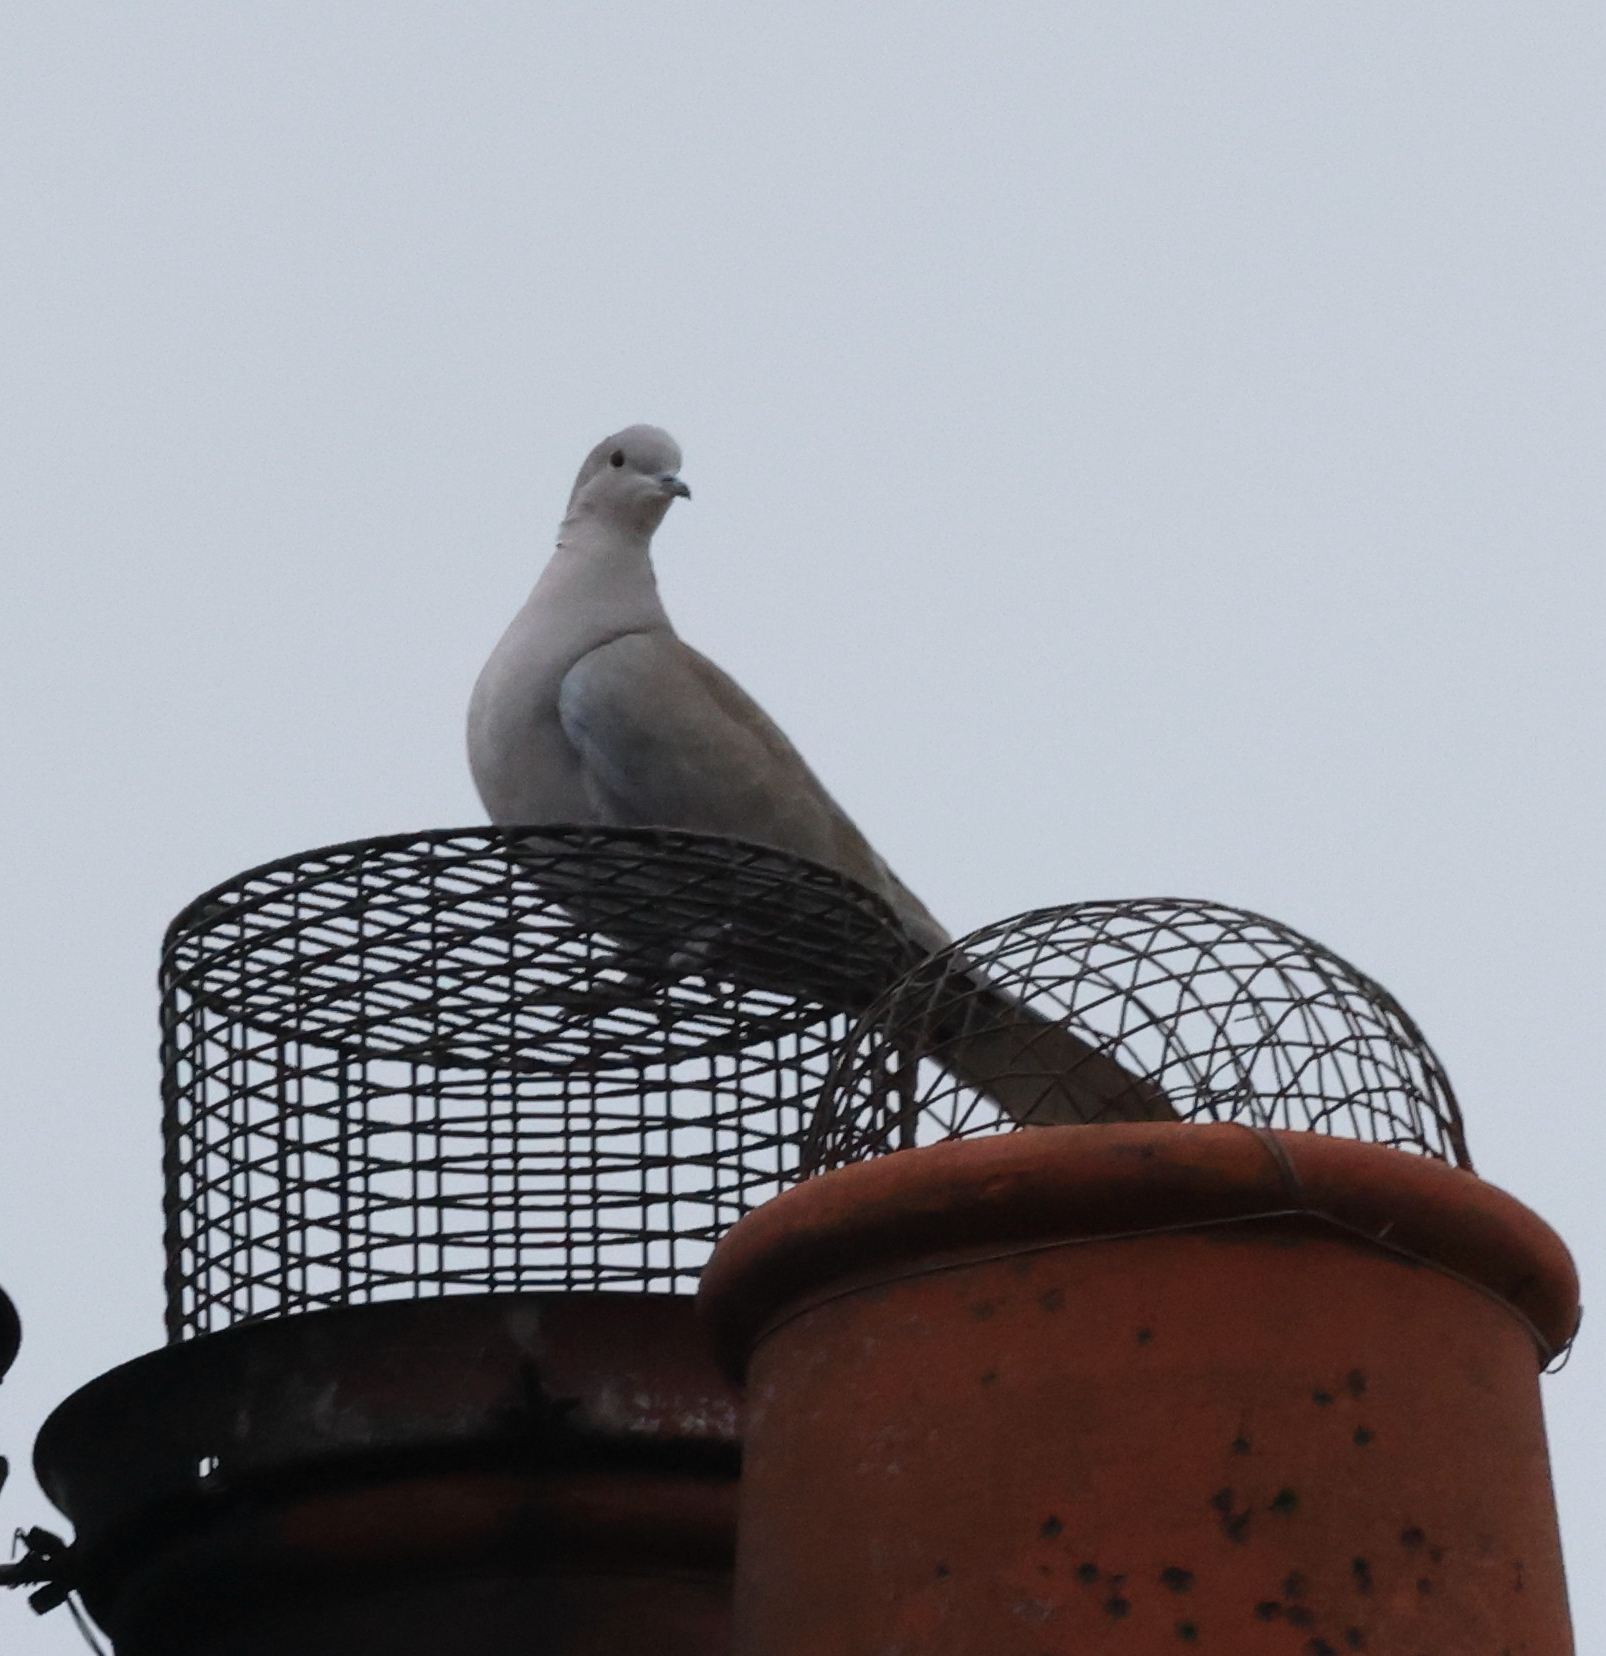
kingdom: Animalia
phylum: Chordata
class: Aves
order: Columbiformes
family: Columbidae
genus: Streptopelia
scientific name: Streptopelia decaocto
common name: Eurasian collared dove
